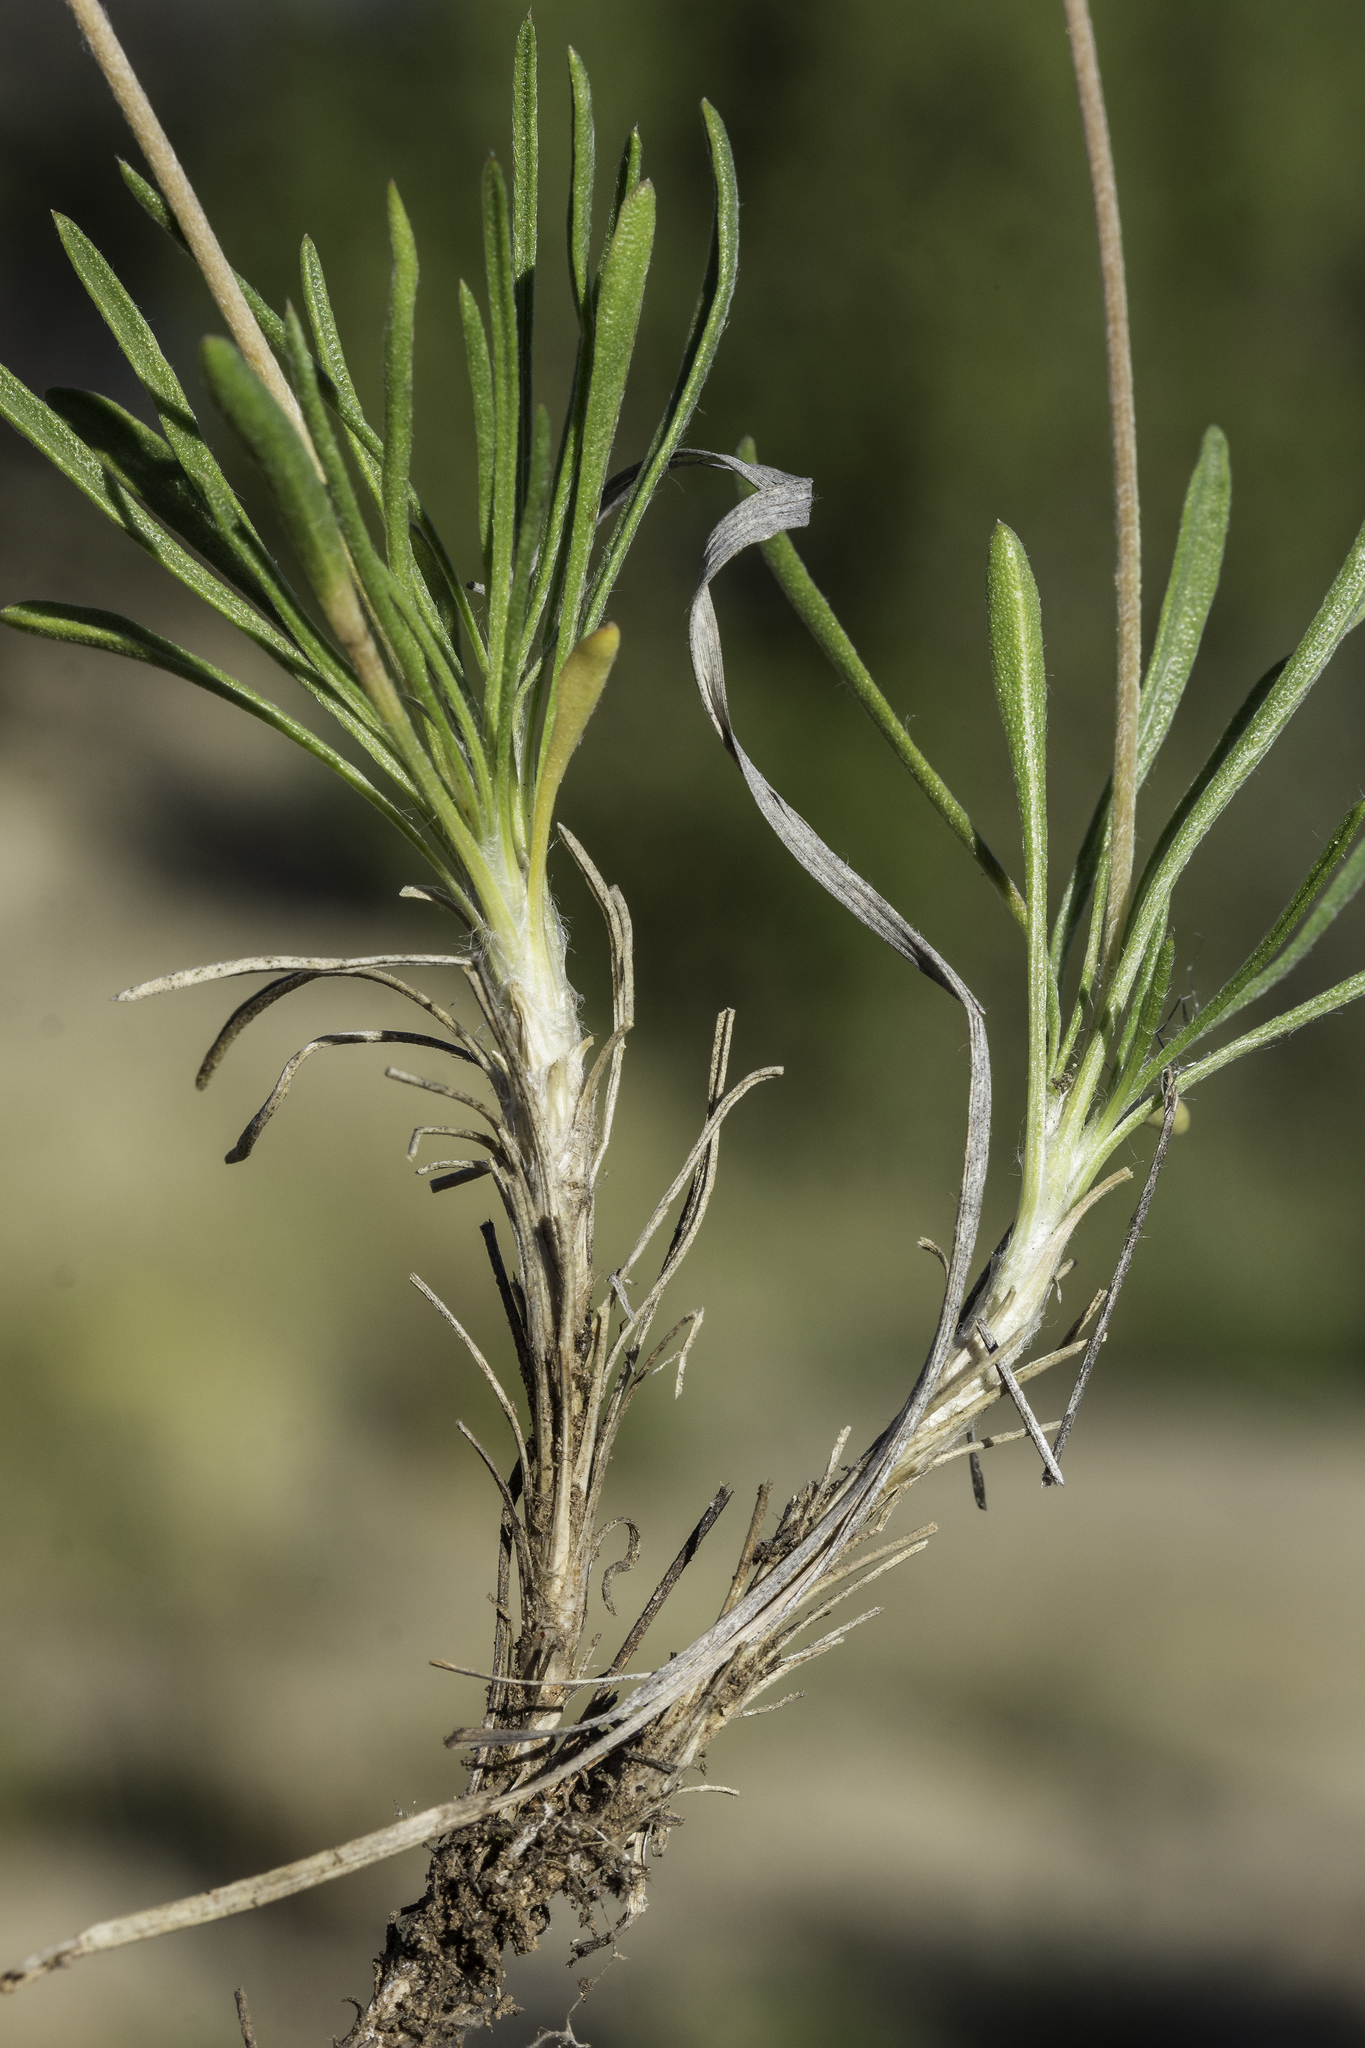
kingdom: Plantae
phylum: Tracheophyta
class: Magnoliopsida
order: Asterales
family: Asteraceae
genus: Tetraneuris
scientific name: Tetraneuris scaposa
